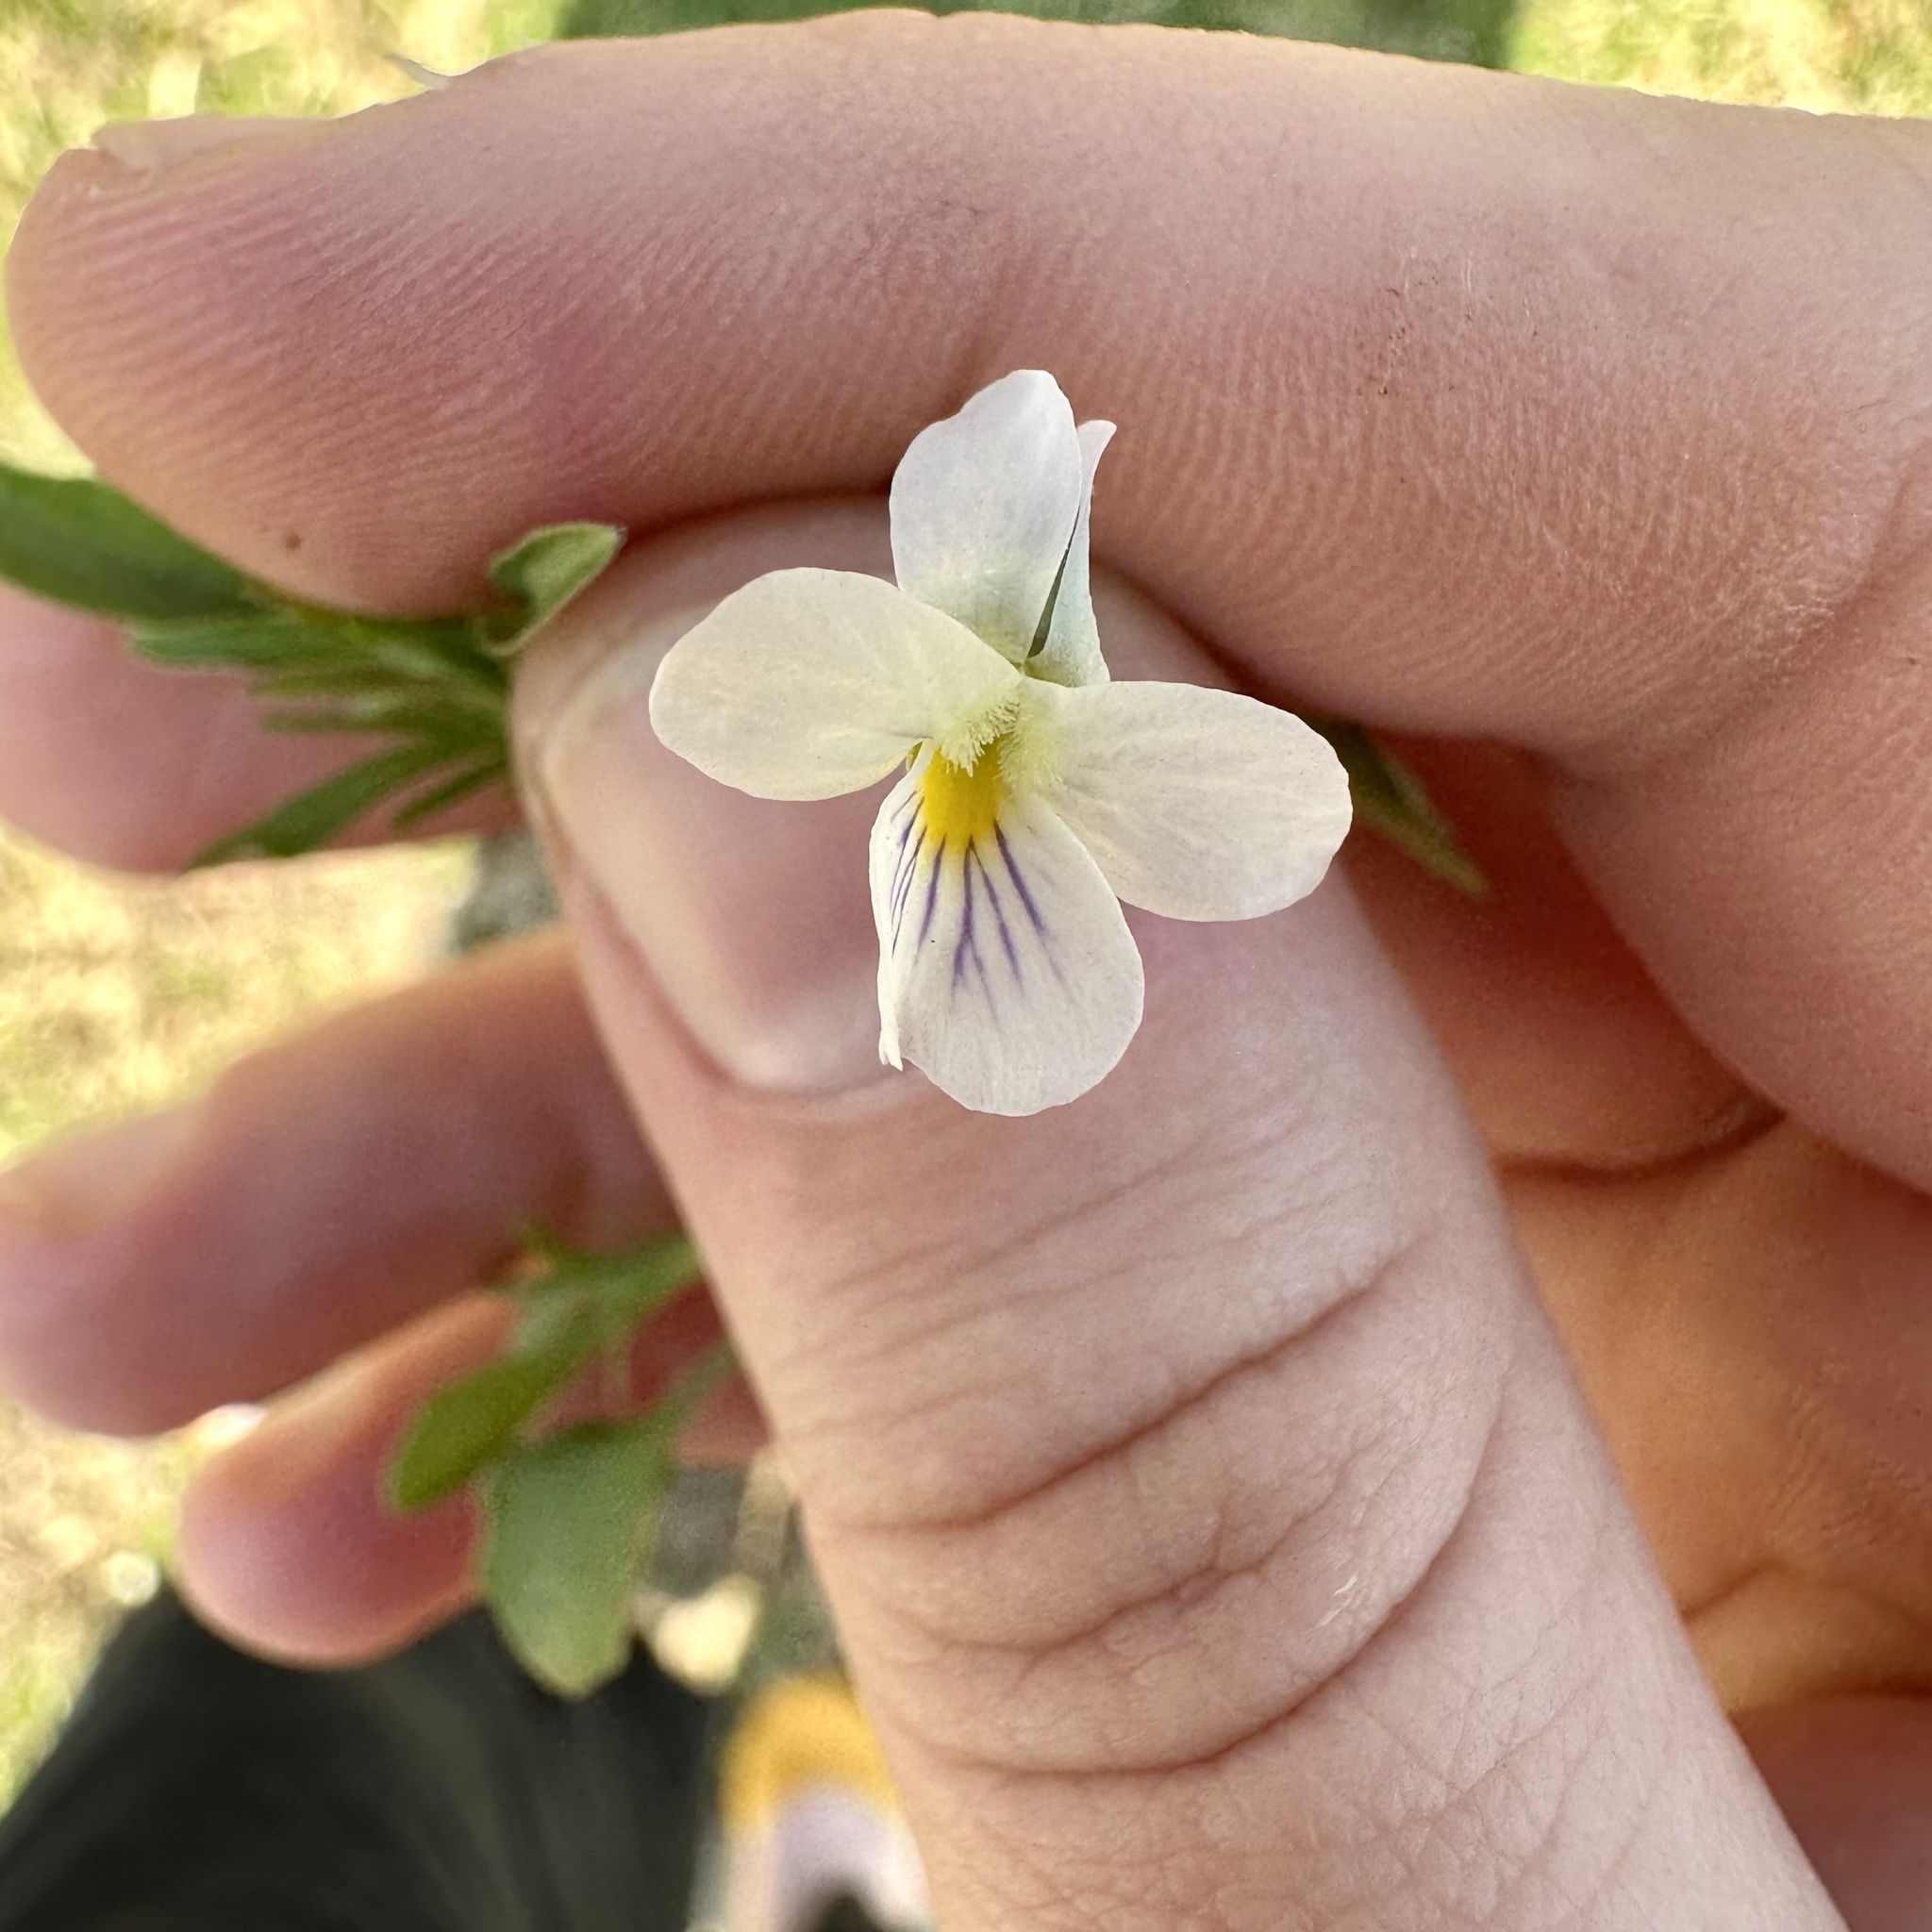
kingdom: Plantae
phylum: Tracheophyta
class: Magnoliopsida
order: Malpighiales
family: Violaceae
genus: Viola
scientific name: Viola rafinesquei
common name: American field pansy
